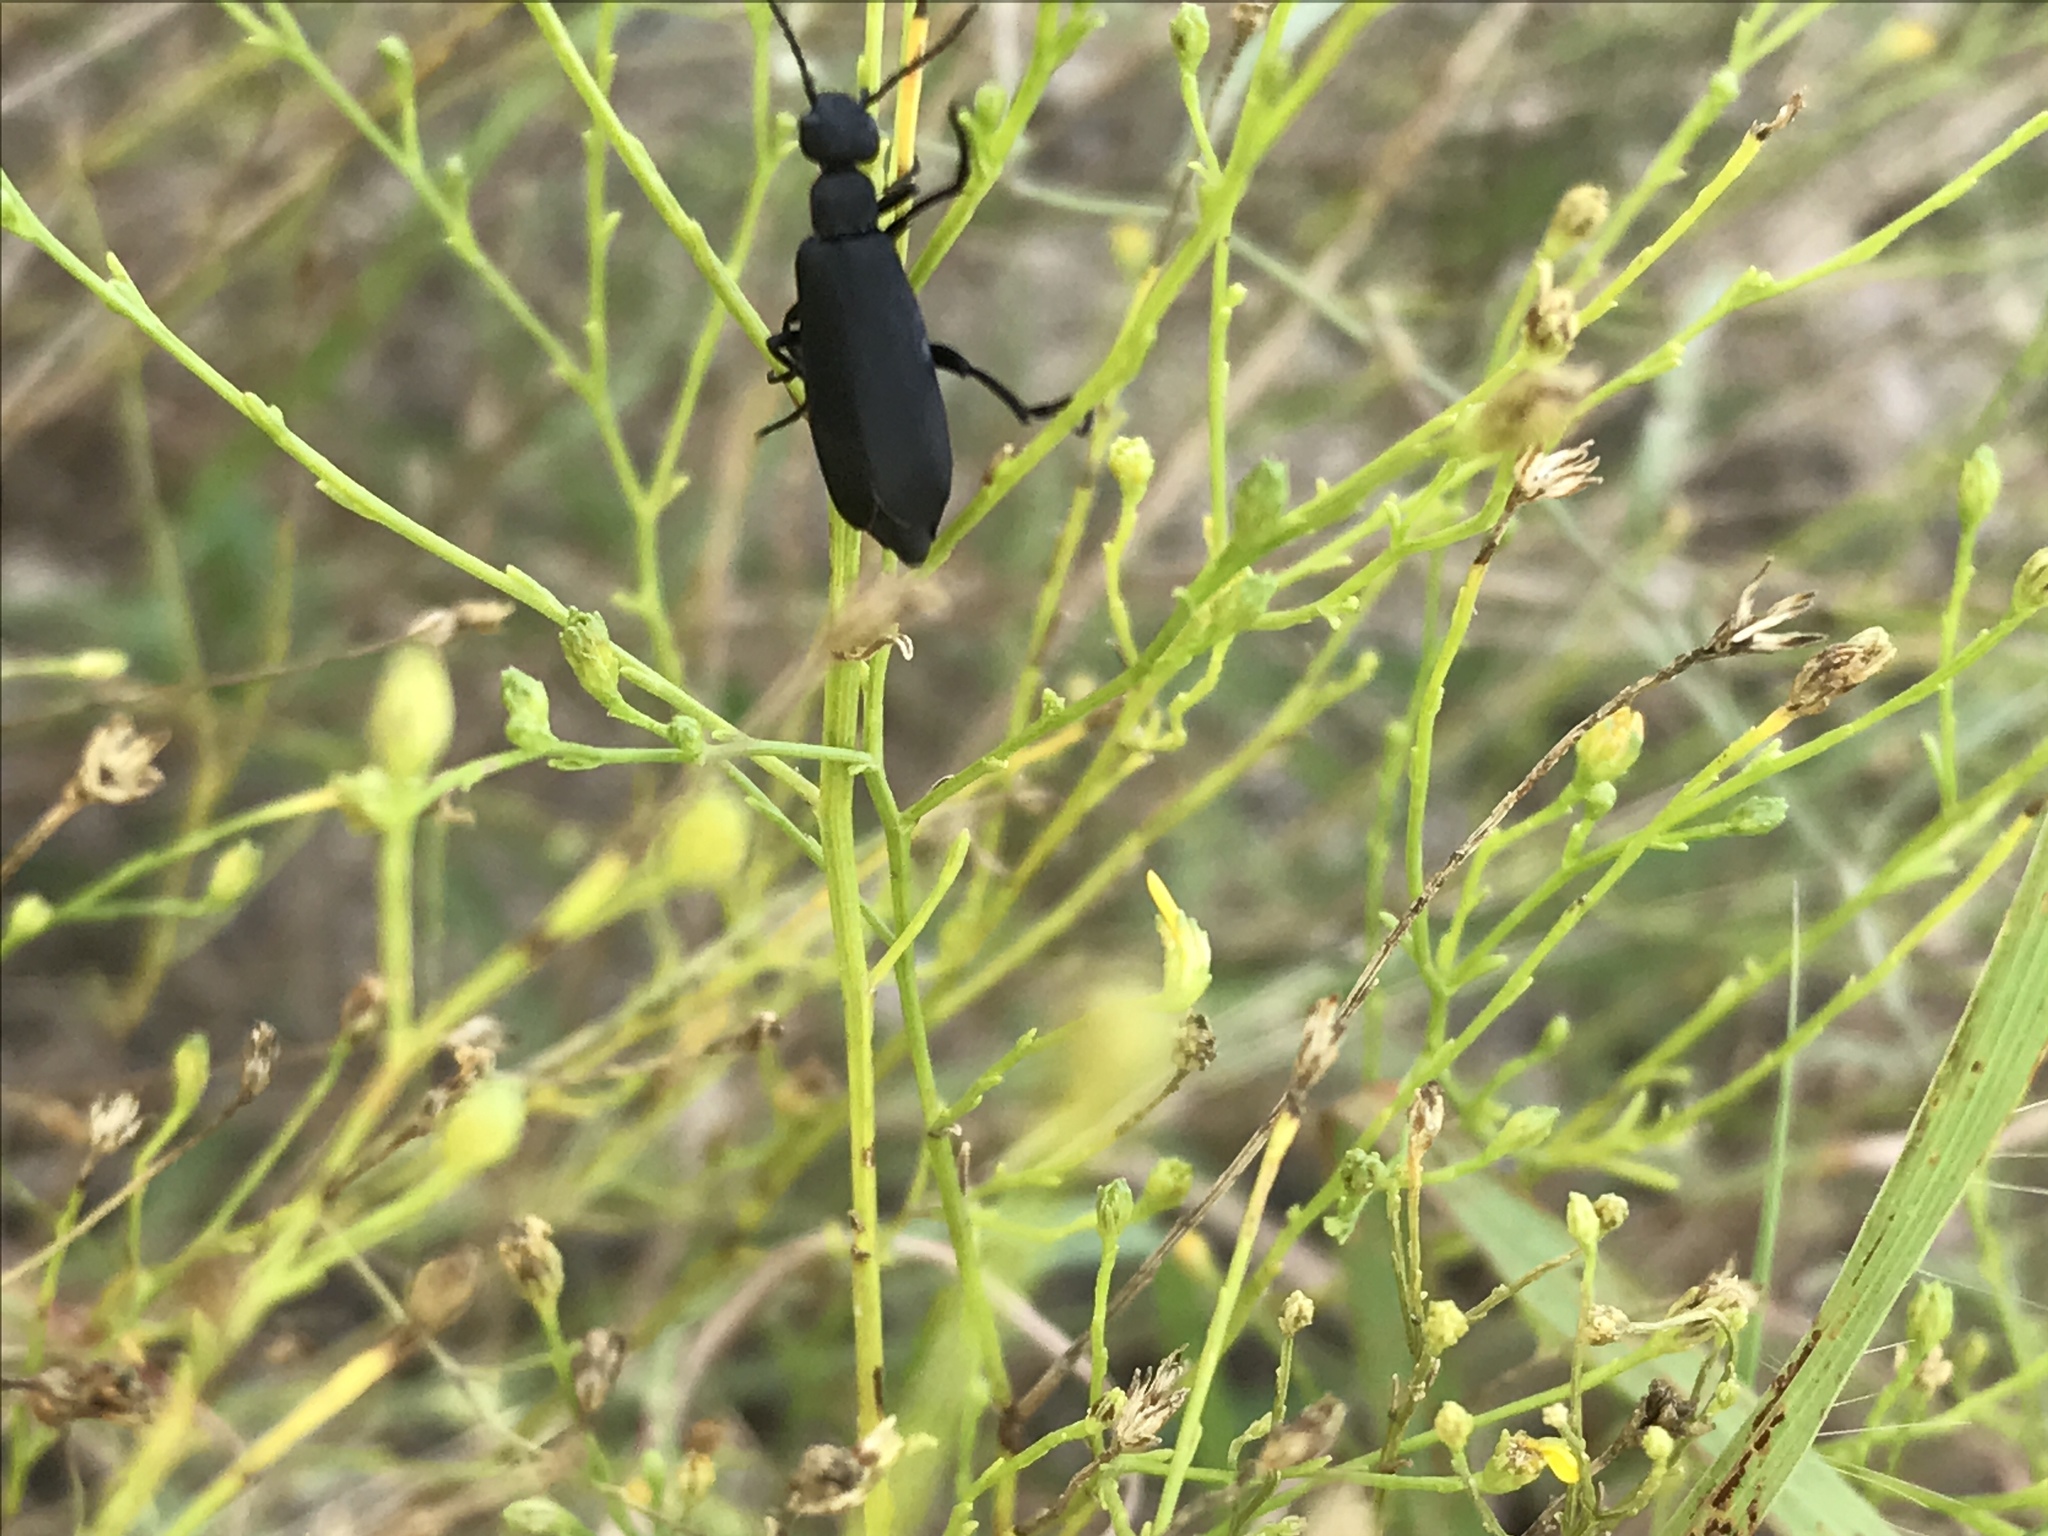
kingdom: Animalia
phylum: Arthropoda
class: Insecta
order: Coleoptera
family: Meloidae
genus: Epicauta
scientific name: Epicauta pensylvanica
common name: Black blister beetle
